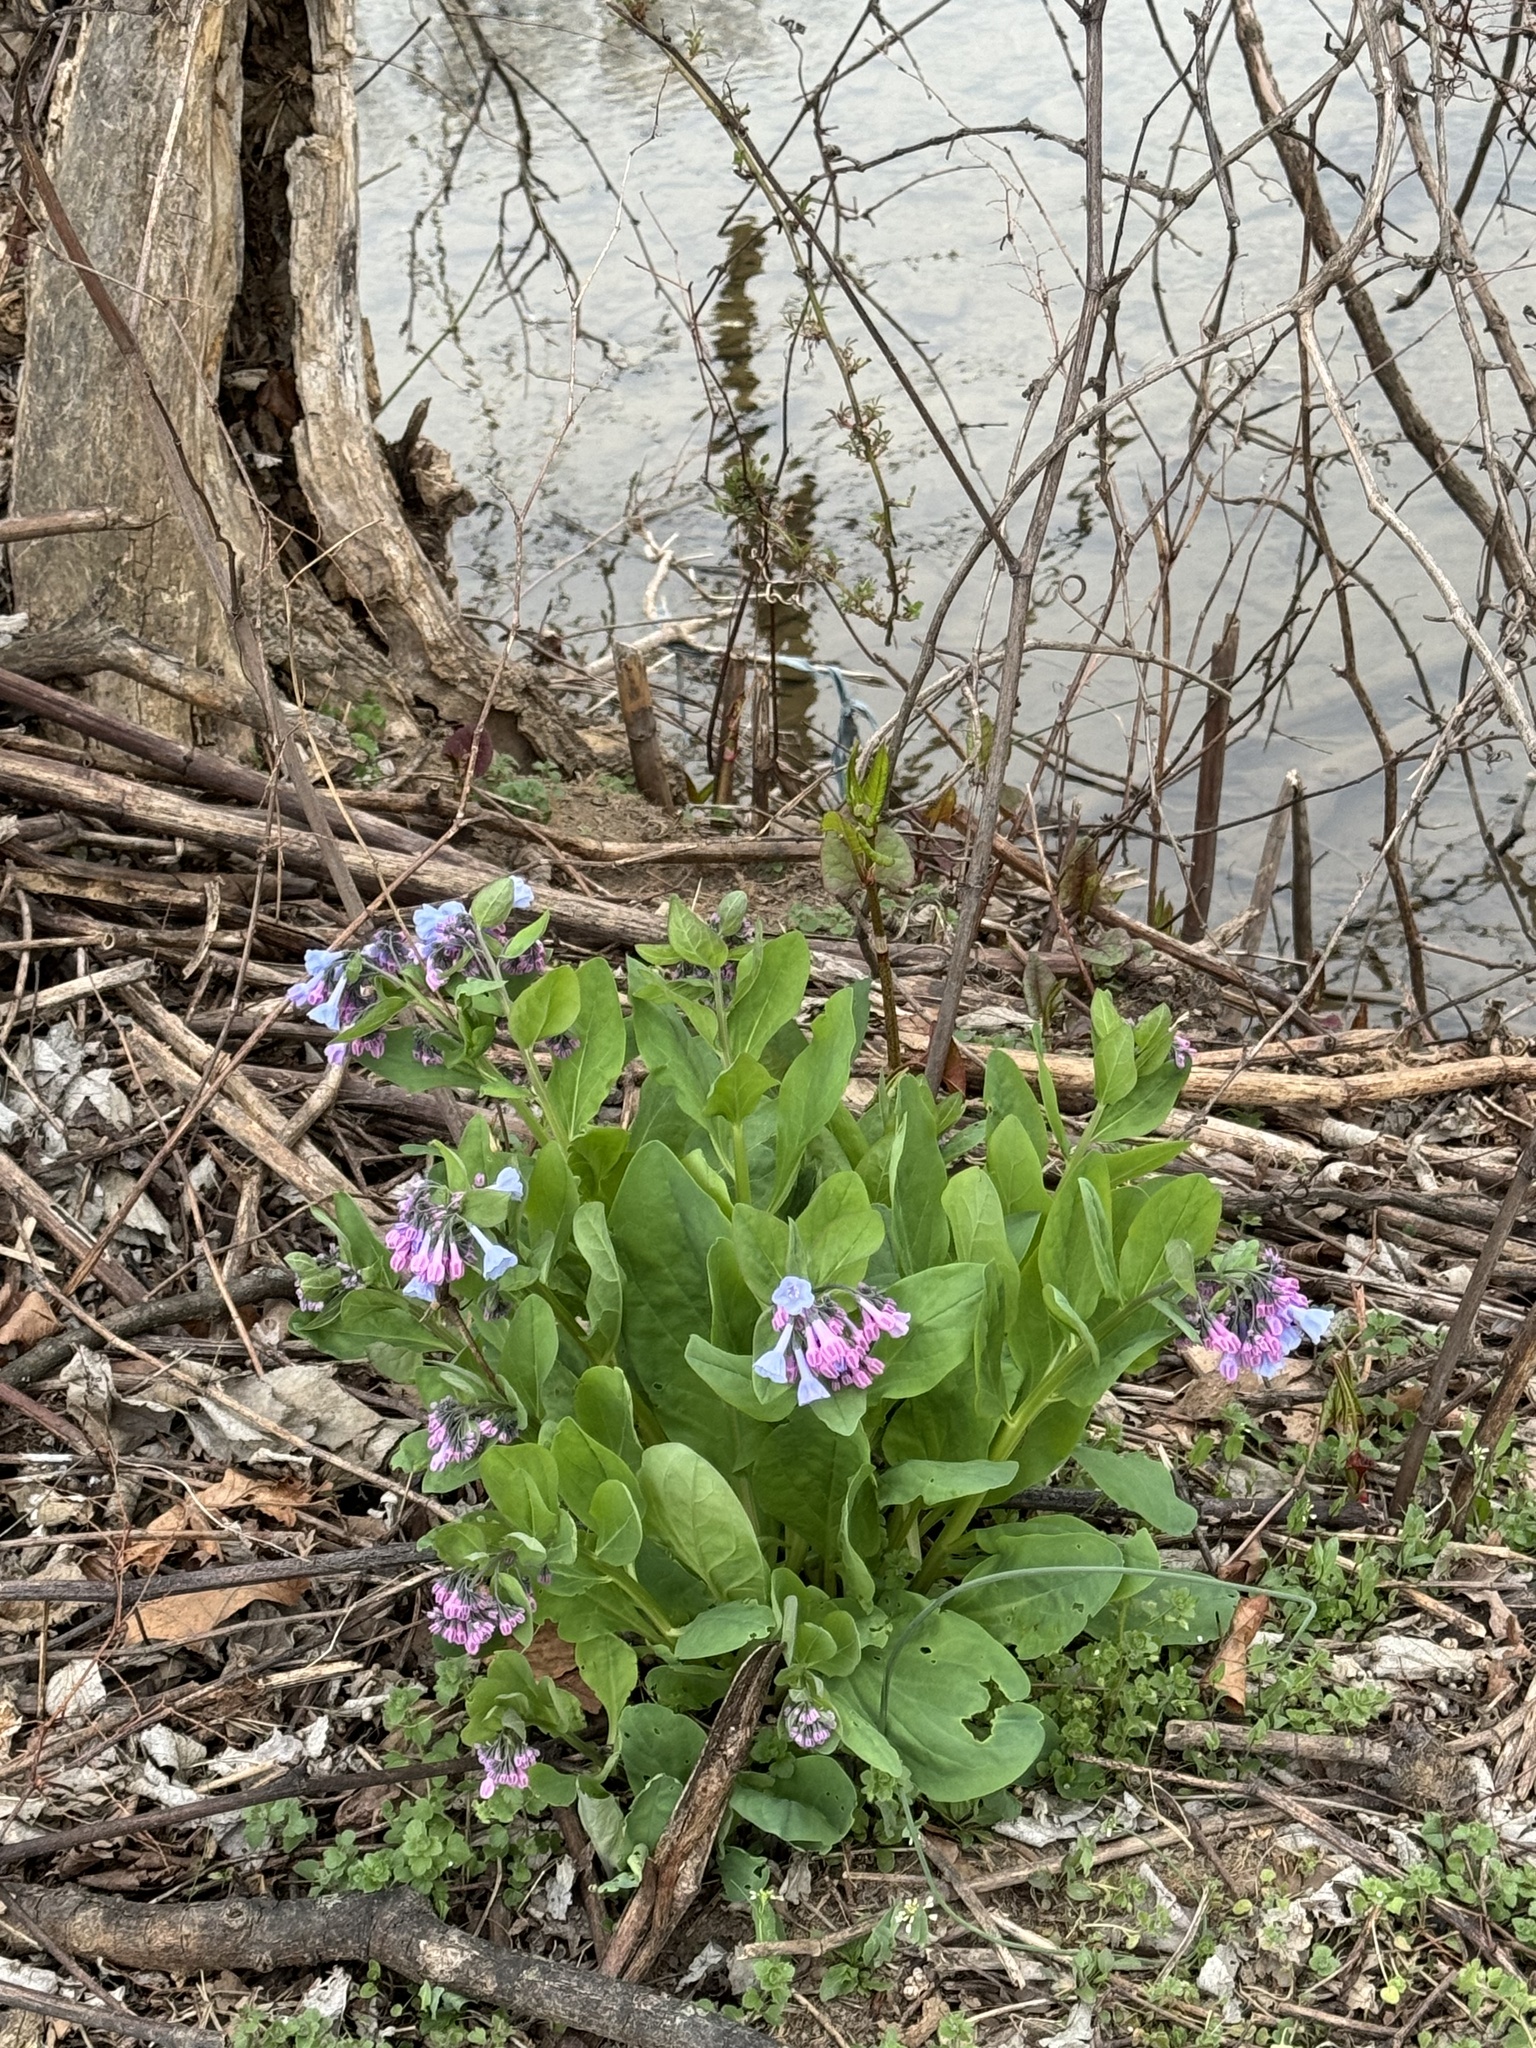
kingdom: Plantae
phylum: Tracheophyta
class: Magnoliopsida
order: Boraginales
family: Boraginaceae
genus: Mertensia
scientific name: Mertensia virginica
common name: Virginia bluebells
